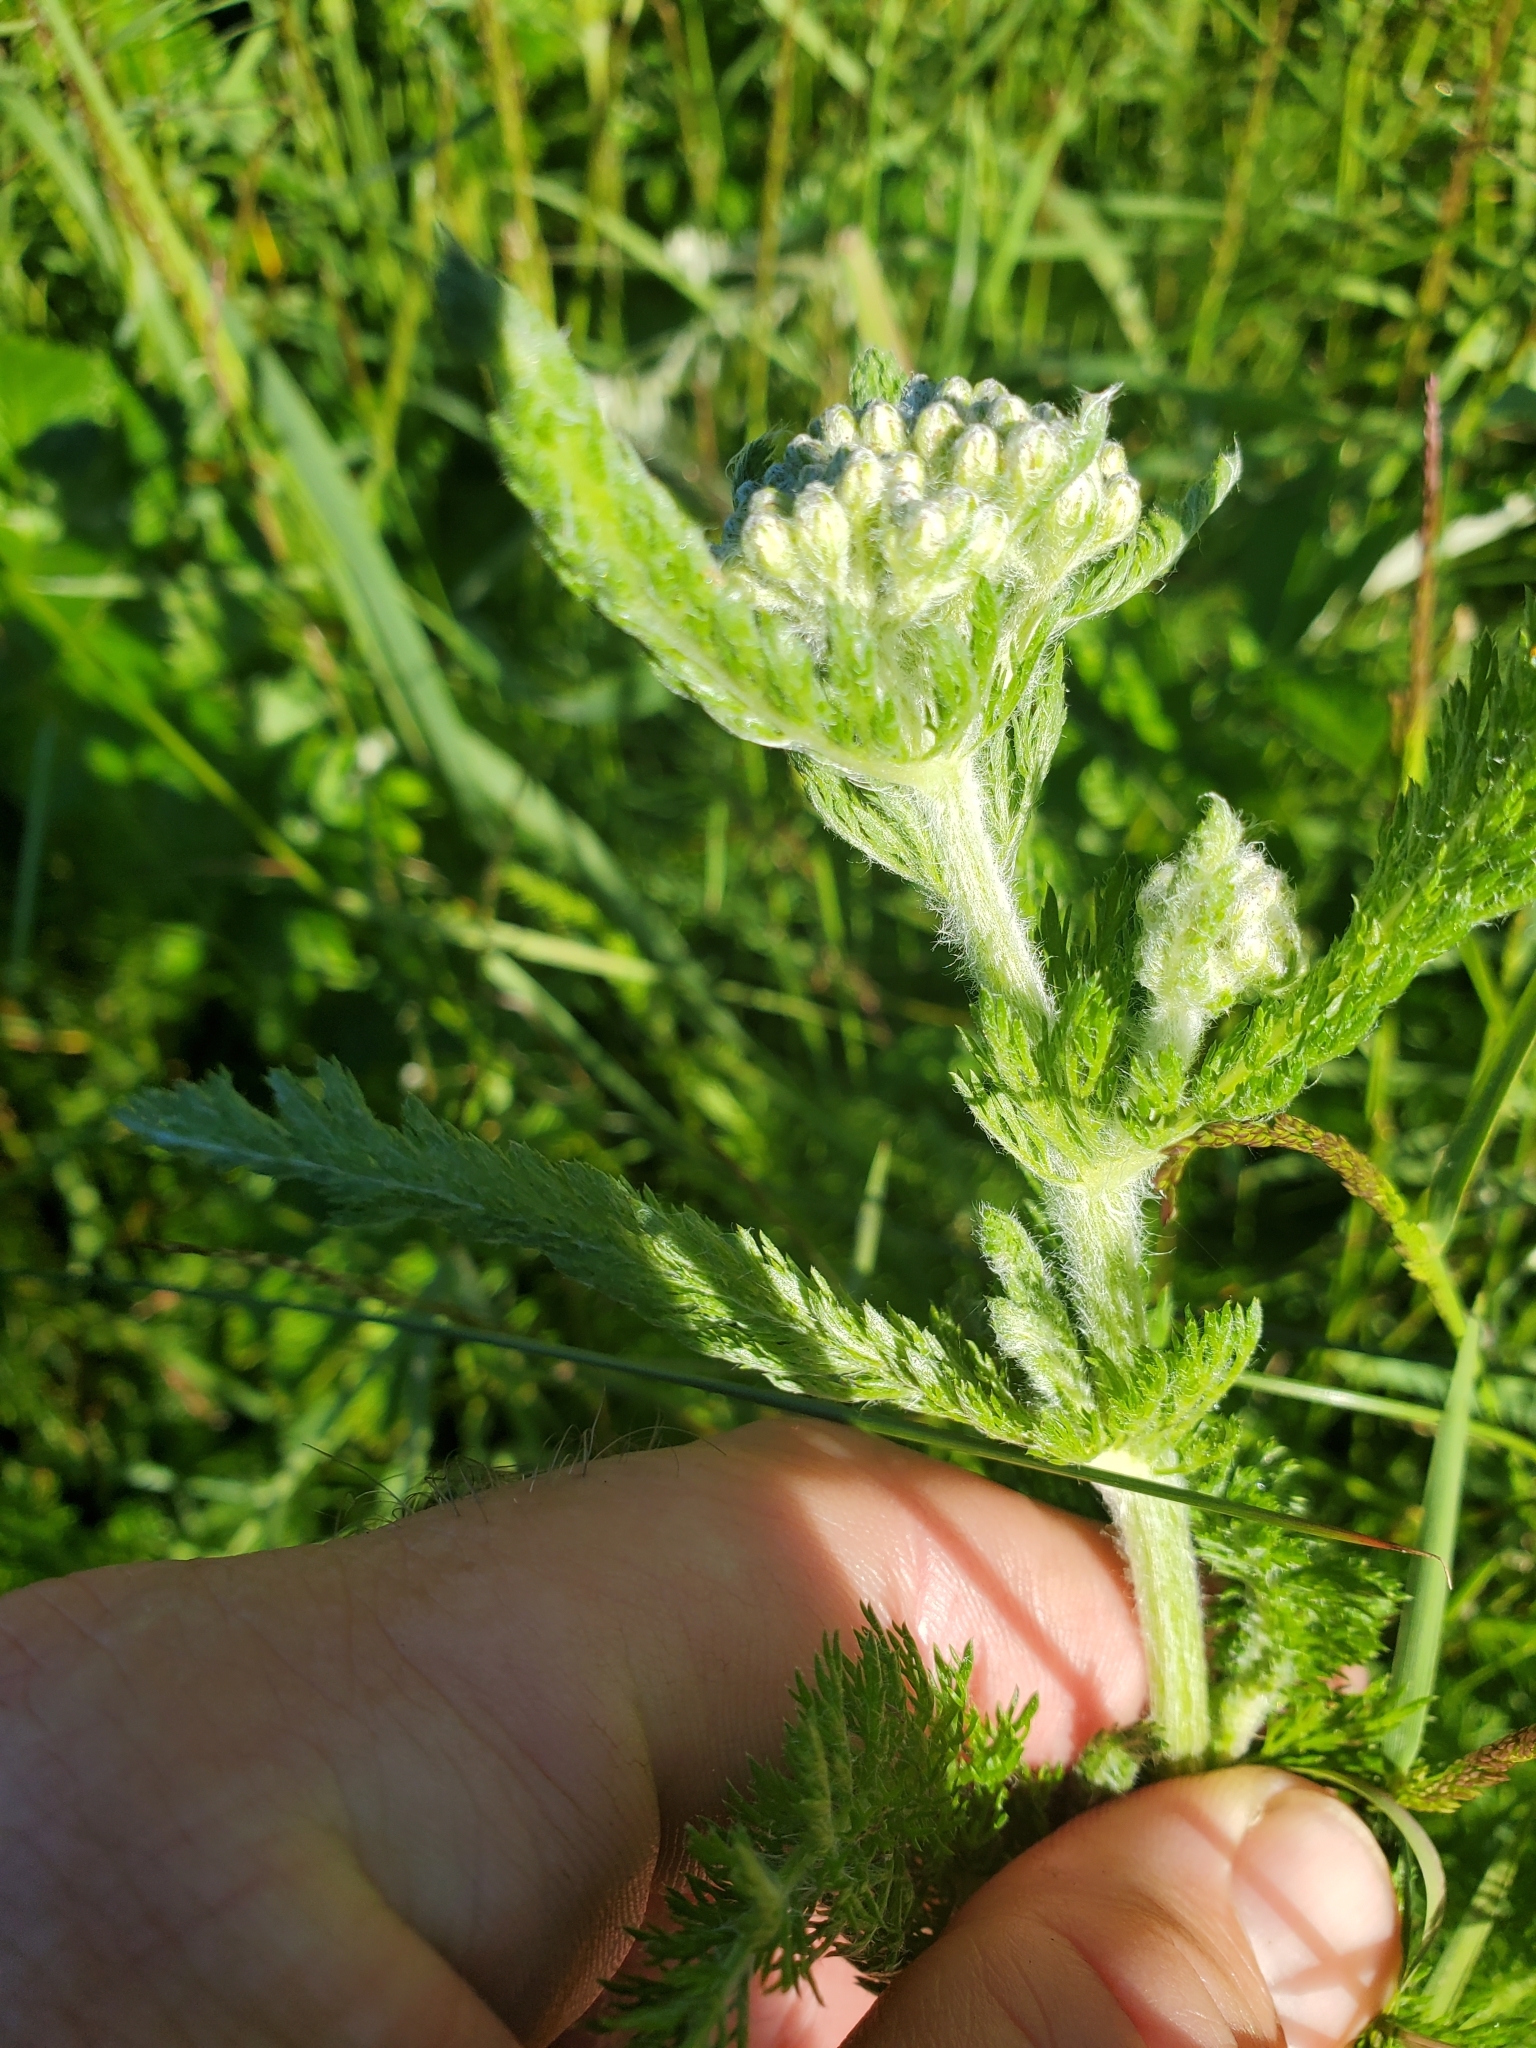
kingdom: Plantae
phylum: Tracheophyta
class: Magnoliopsida
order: Asterales
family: Asteraceae
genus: Achillea
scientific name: Achillea millefolium
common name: Yarrow
